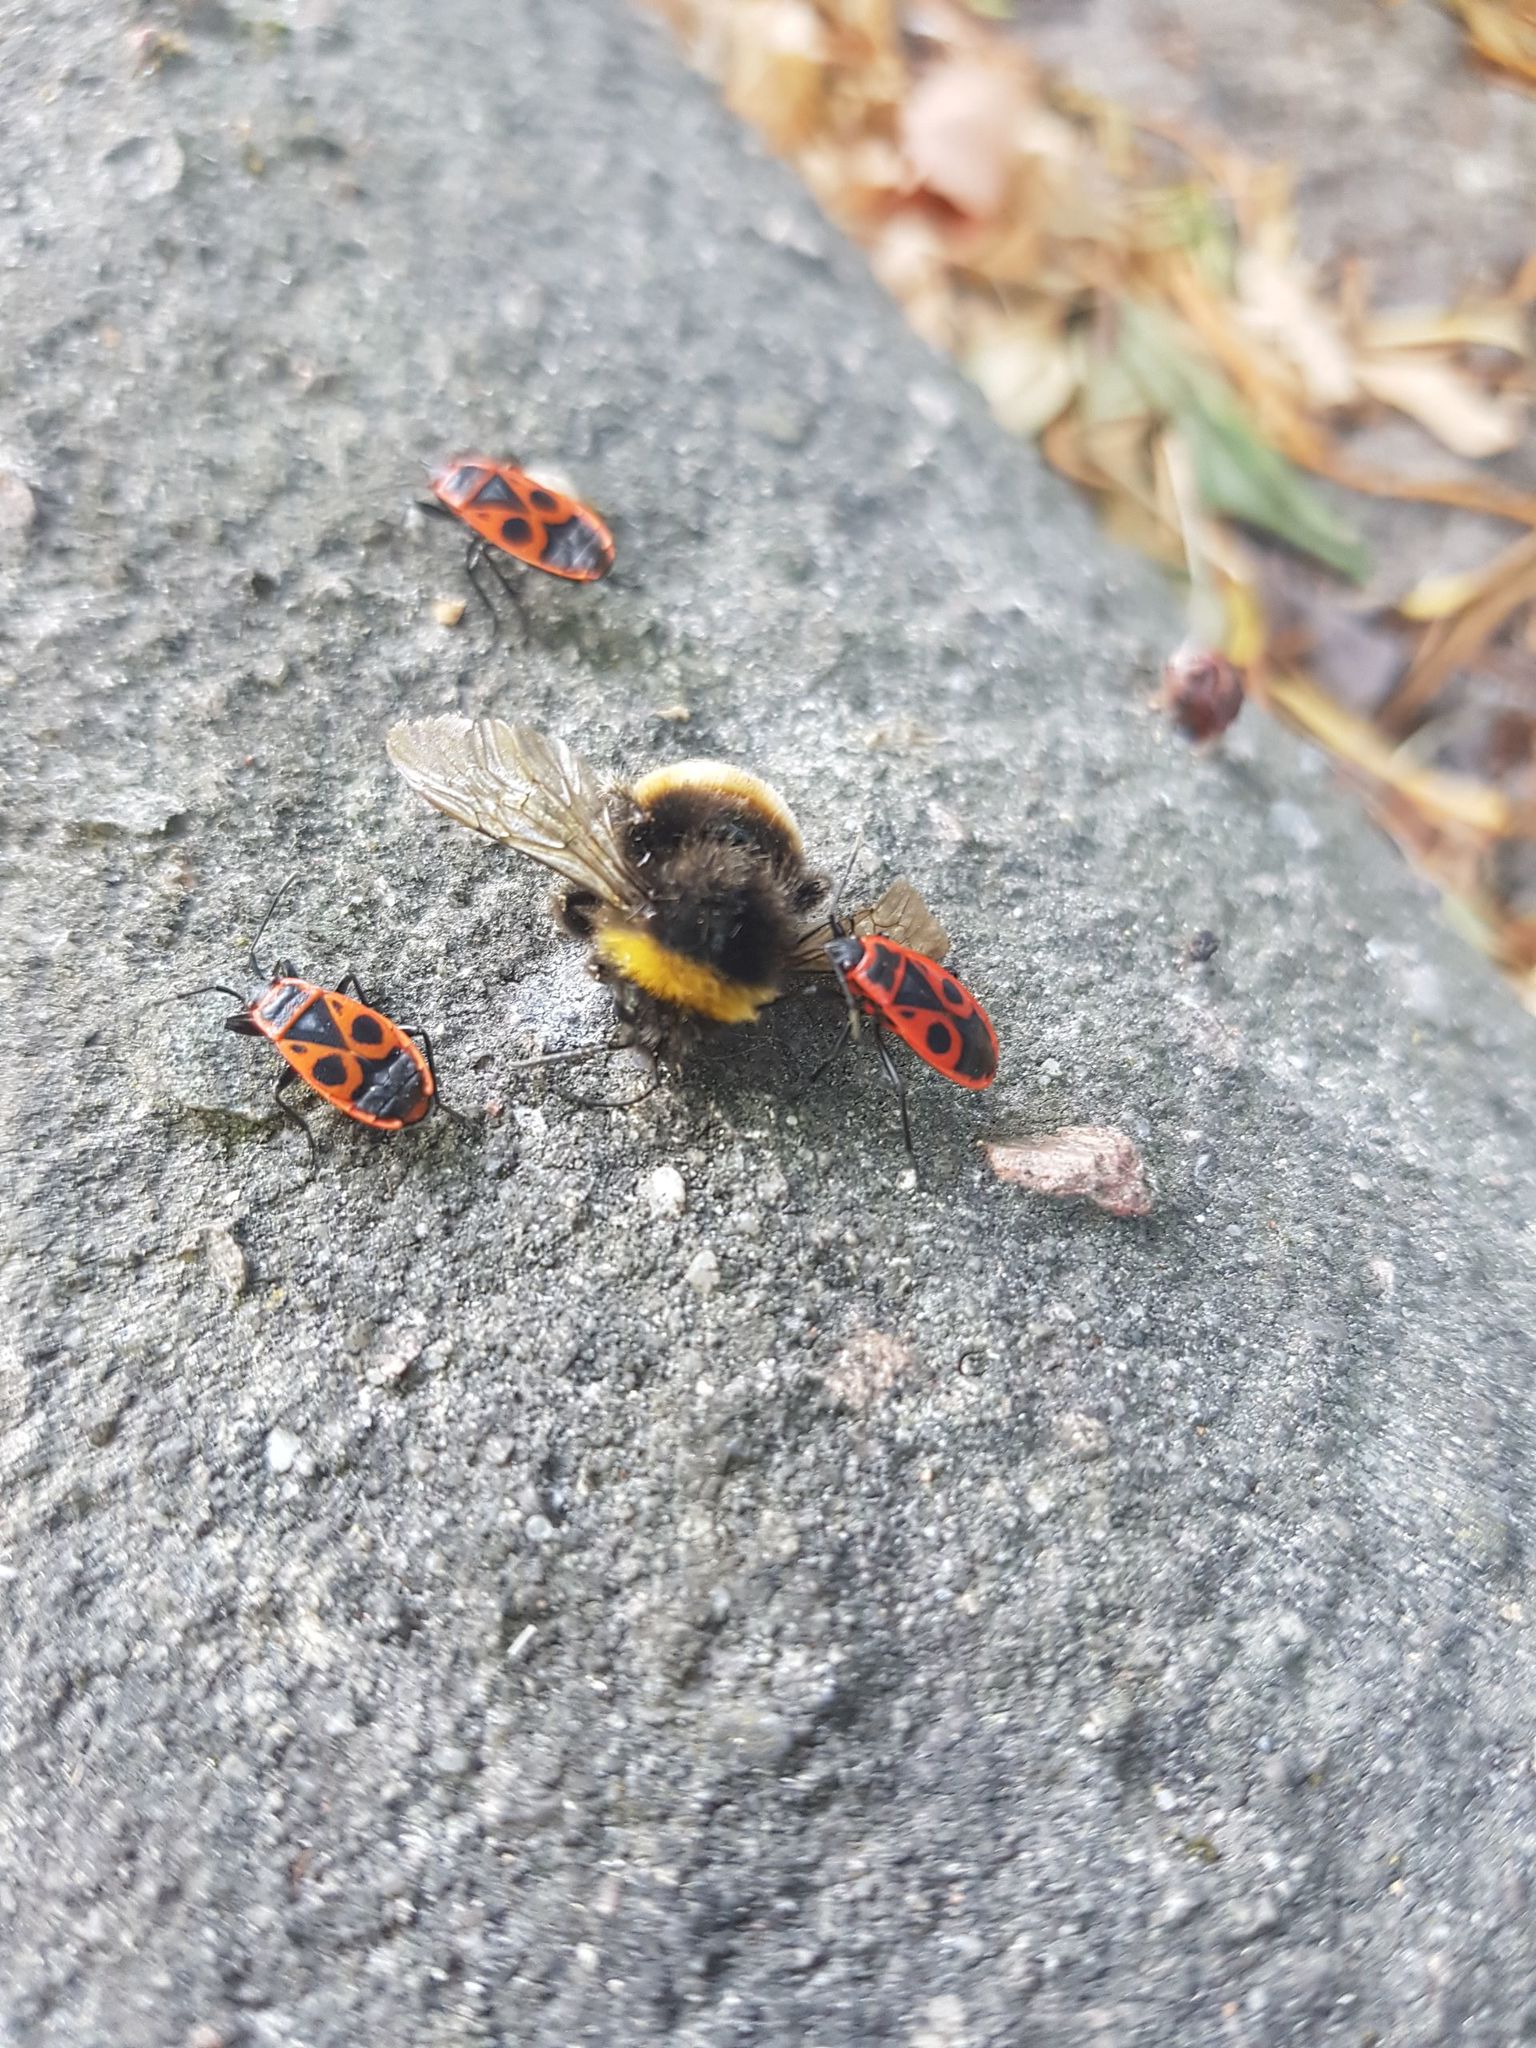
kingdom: Animalia
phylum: Arthropoda
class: Insecta
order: Hemiptera
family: Pyrrhocoridae
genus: Pyrrhocoris
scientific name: Pyrrhocoris apterus
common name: Firebug
